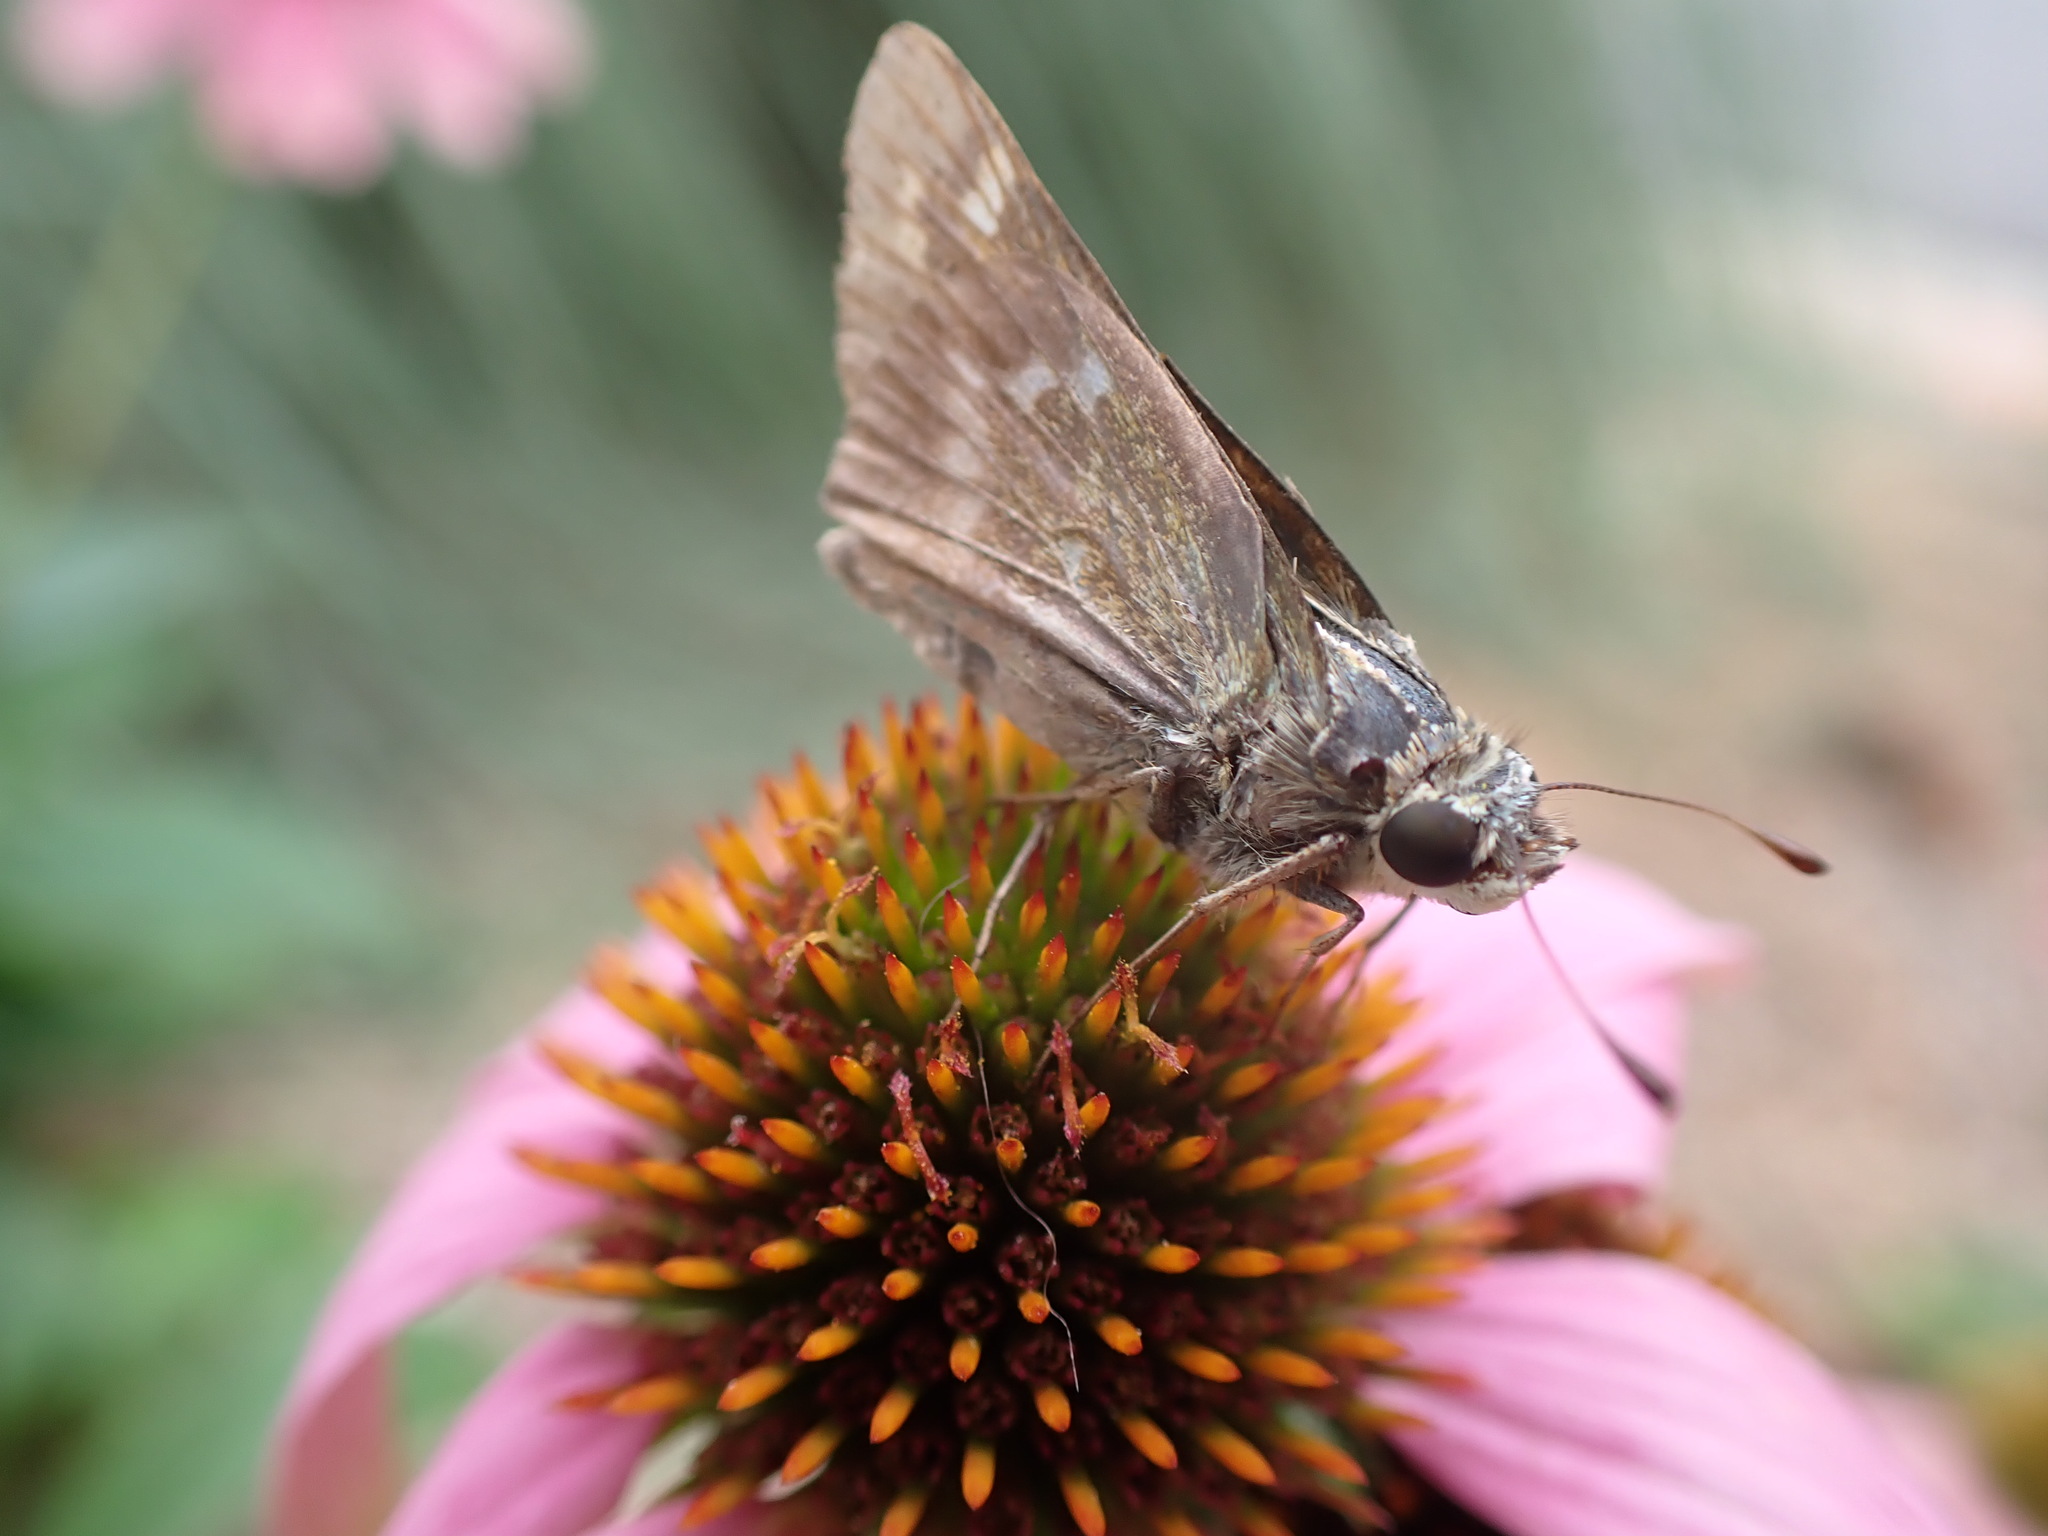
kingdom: Animalia
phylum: Arthropoda
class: Insecta
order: Lepidoptera
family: Hesperiidae
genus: Atalopedes
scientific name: Atalopedes
